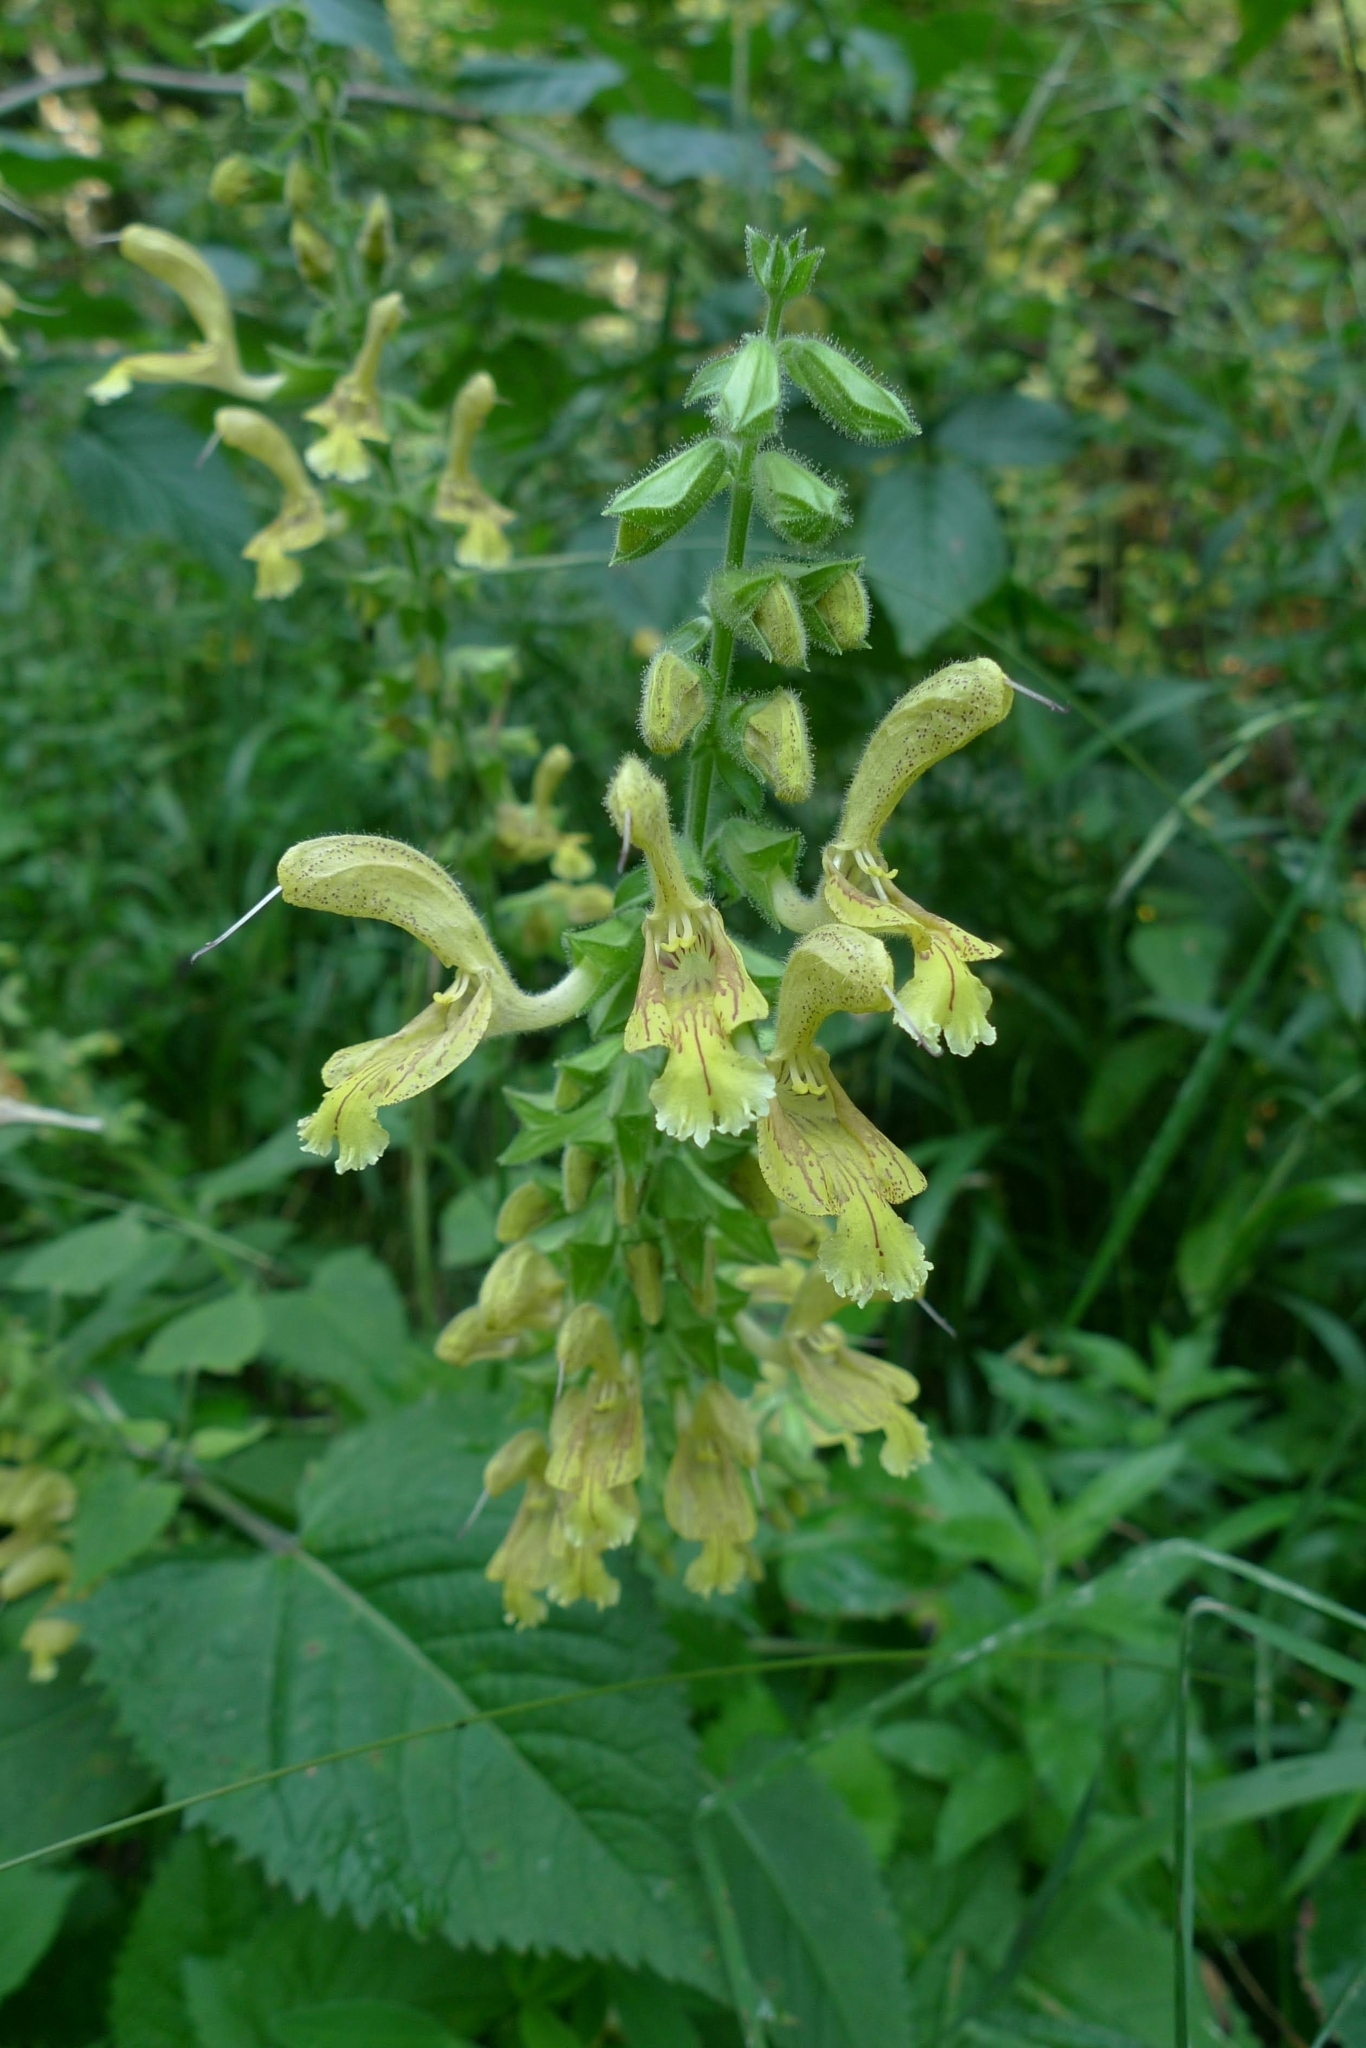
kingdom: Plantae
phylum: Tracheophyta
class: Magnoliopsida
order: Lamiales
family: Lamiaceae
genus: Salvia
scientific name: Salvia glutinosa
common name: Sticky clary
